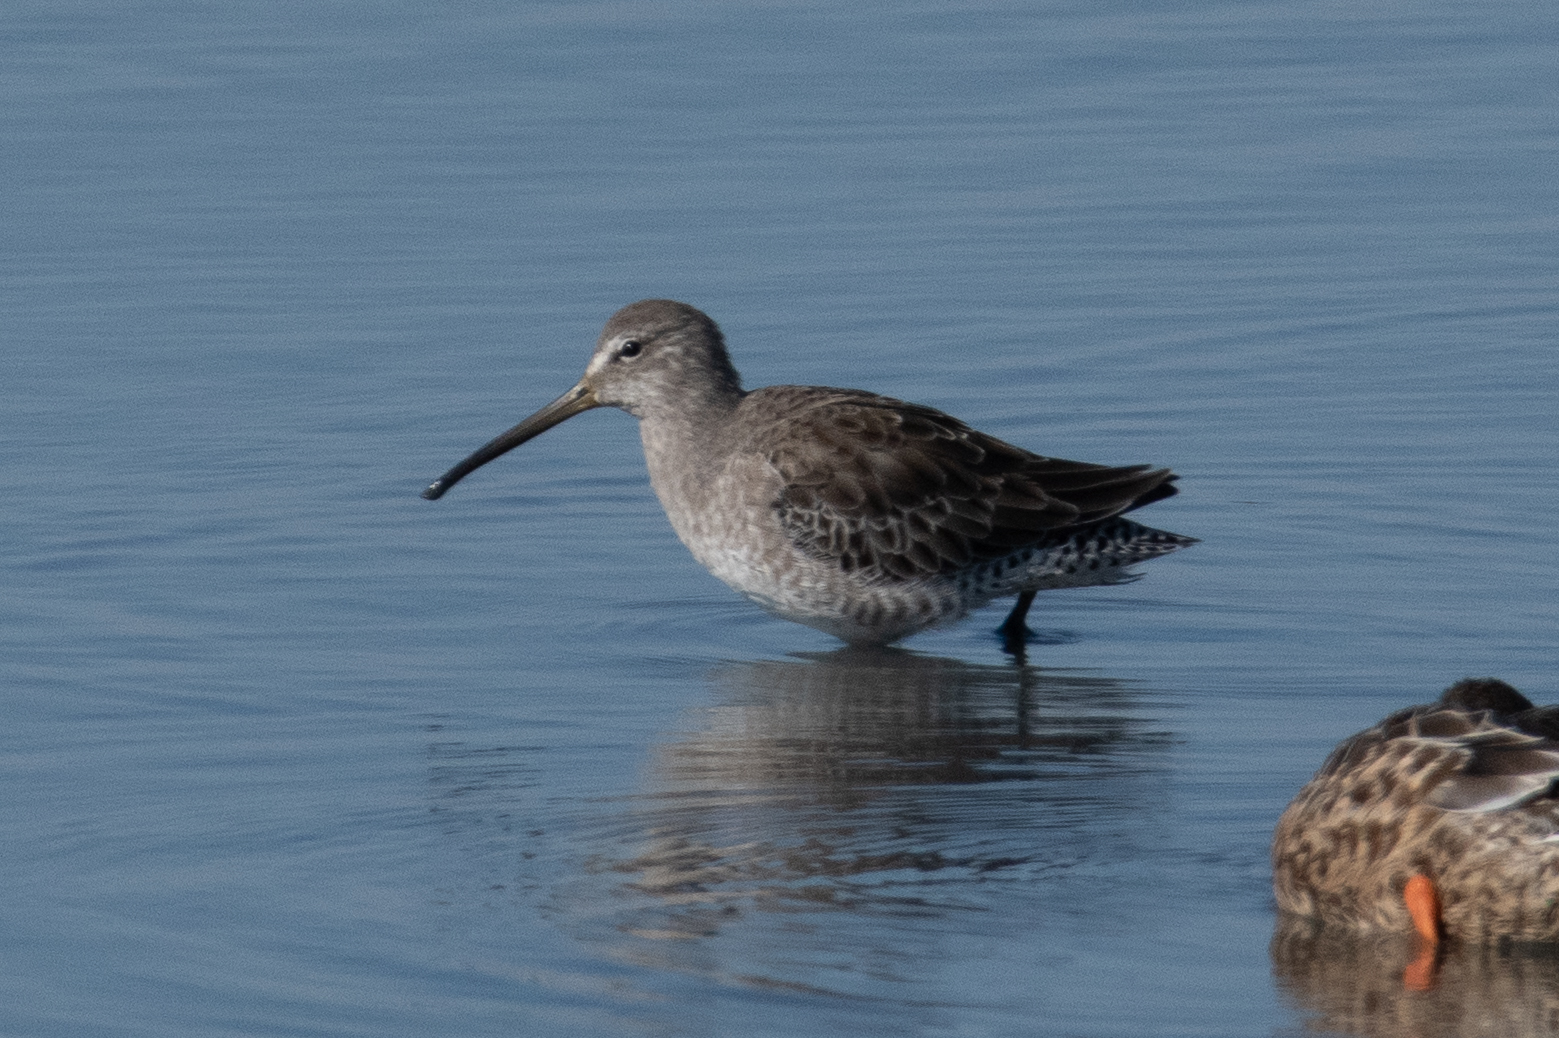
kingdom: Animalia
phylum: Chordata
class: Aves
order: Charadriiformes
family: Scolopacidae
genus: Limnodromus
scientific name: Limnodromus scolopaceus
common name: Long-billed dowitcher
